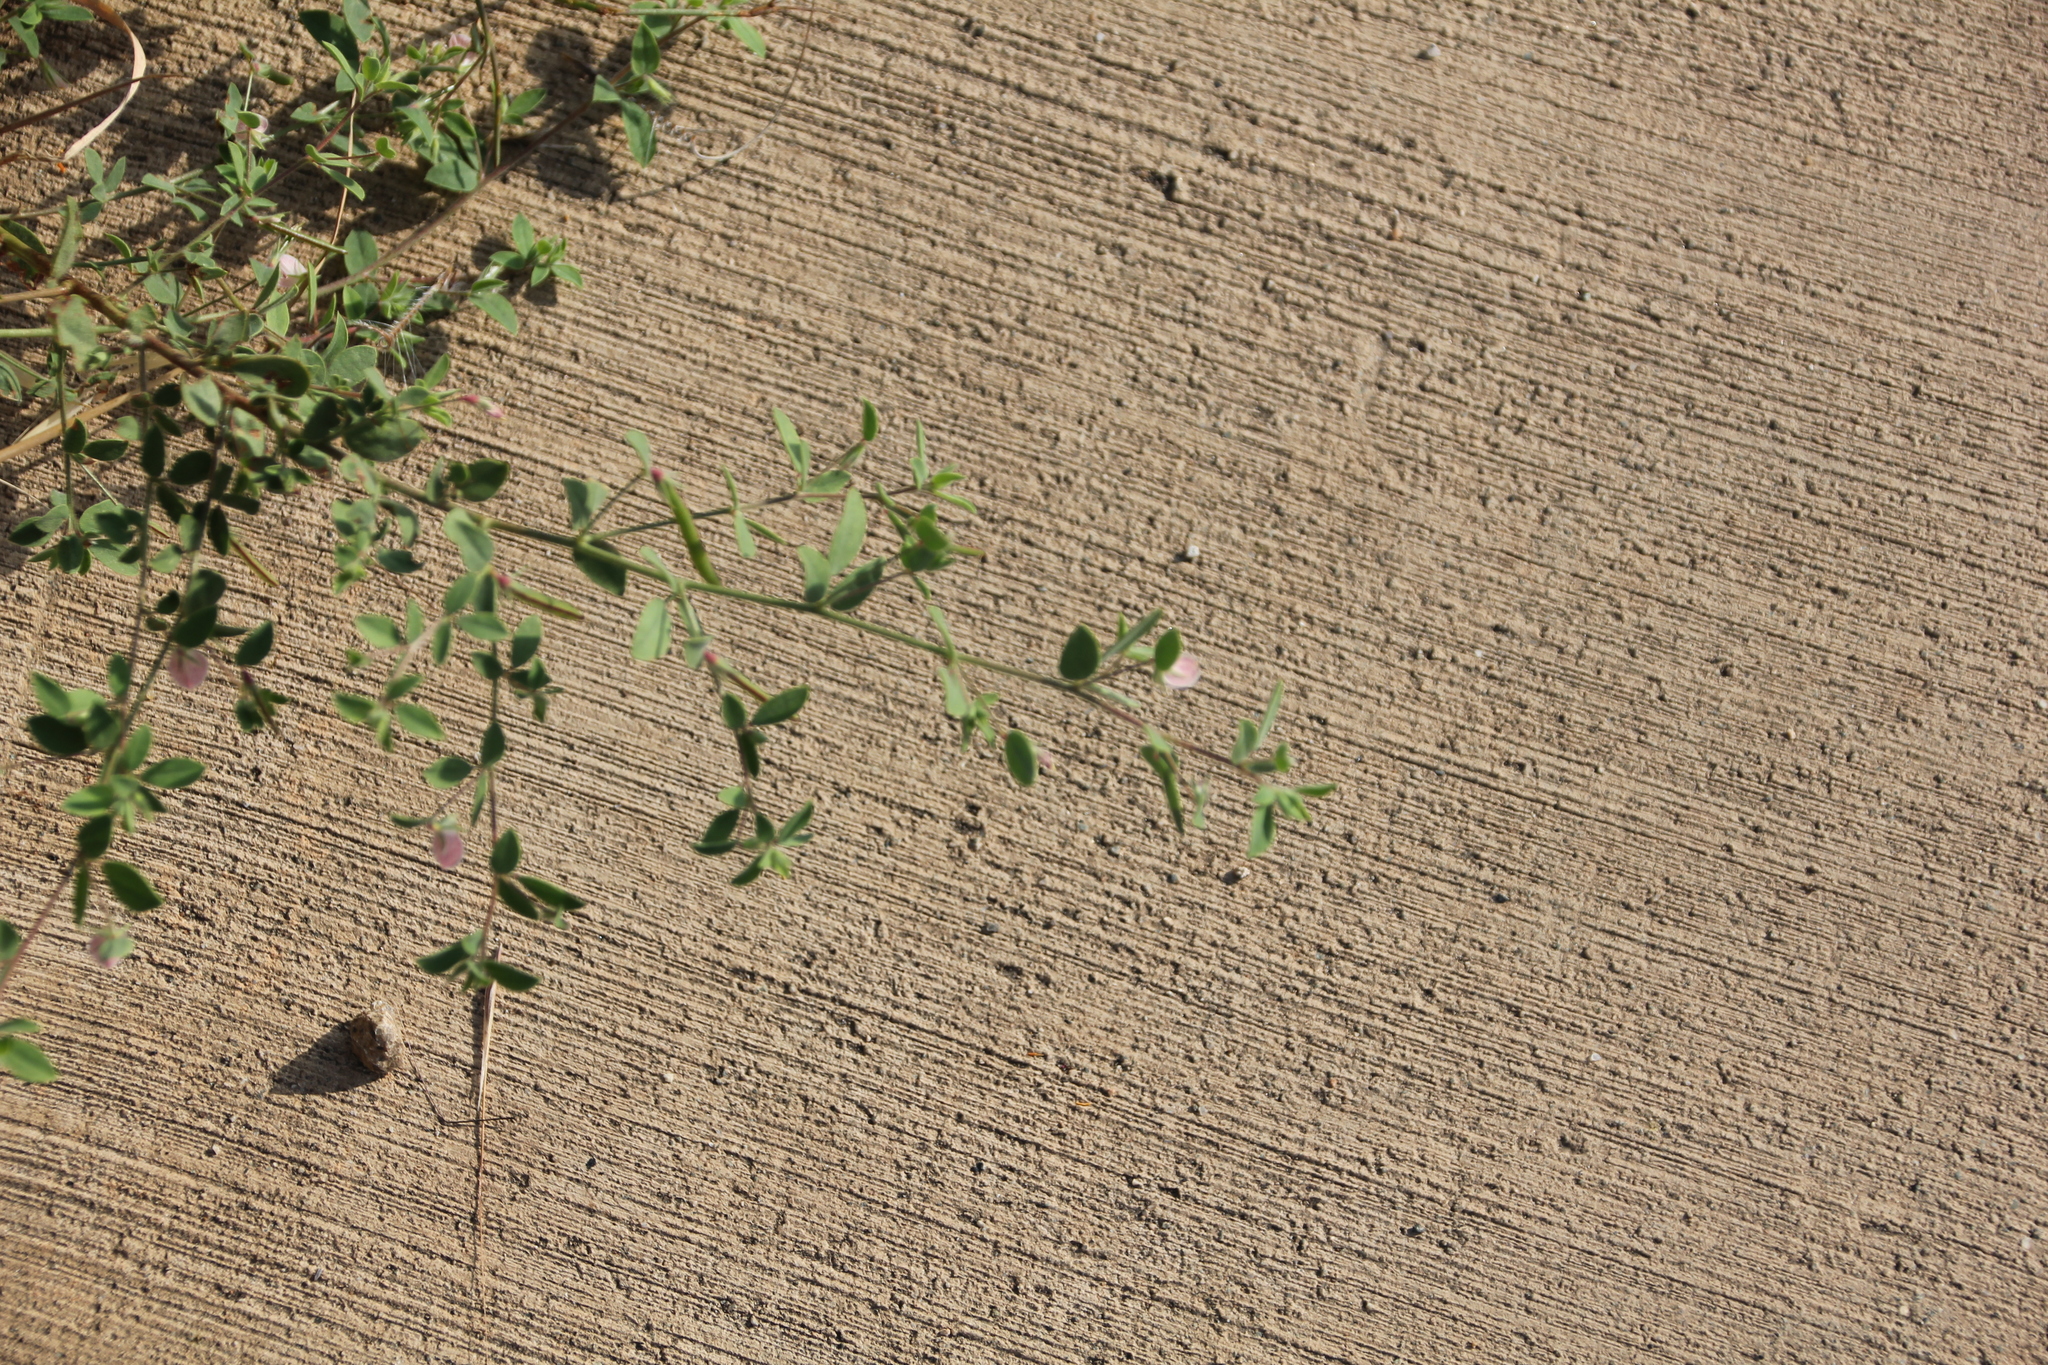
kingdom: Plantae
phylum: Tracheophyta
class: Magnoliopsida
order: Fabales
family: Fabaceae
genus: Acmispon
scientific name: Acmispon americanus
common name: American bird's-foot trefoil
